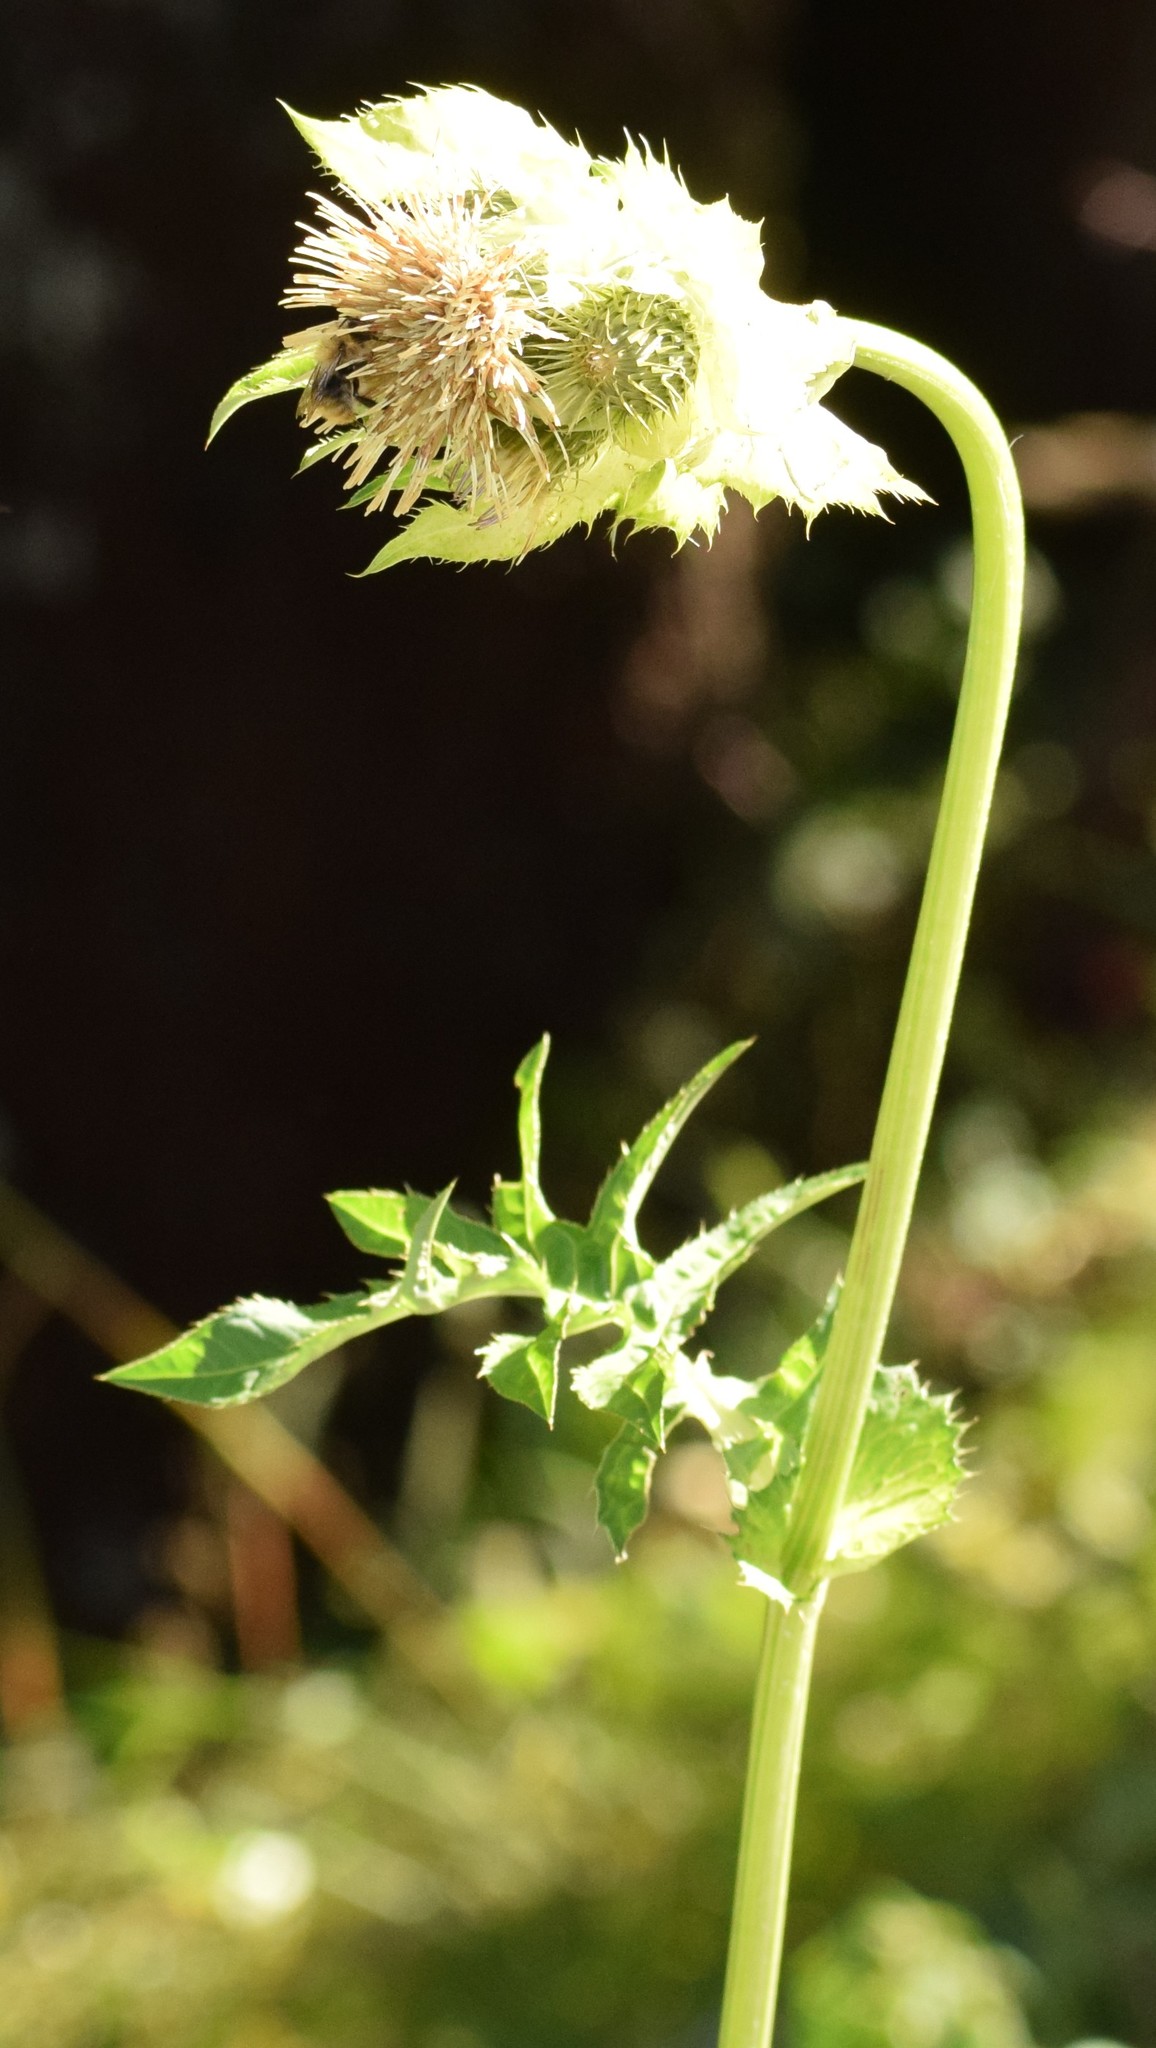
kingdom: Plantae
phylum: Tracheophyta
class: Magnoliopsida
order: Asterales
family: Asteraceae
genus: Cirsium
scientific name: Cirsium oleraceum
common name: Cabbage thistle
